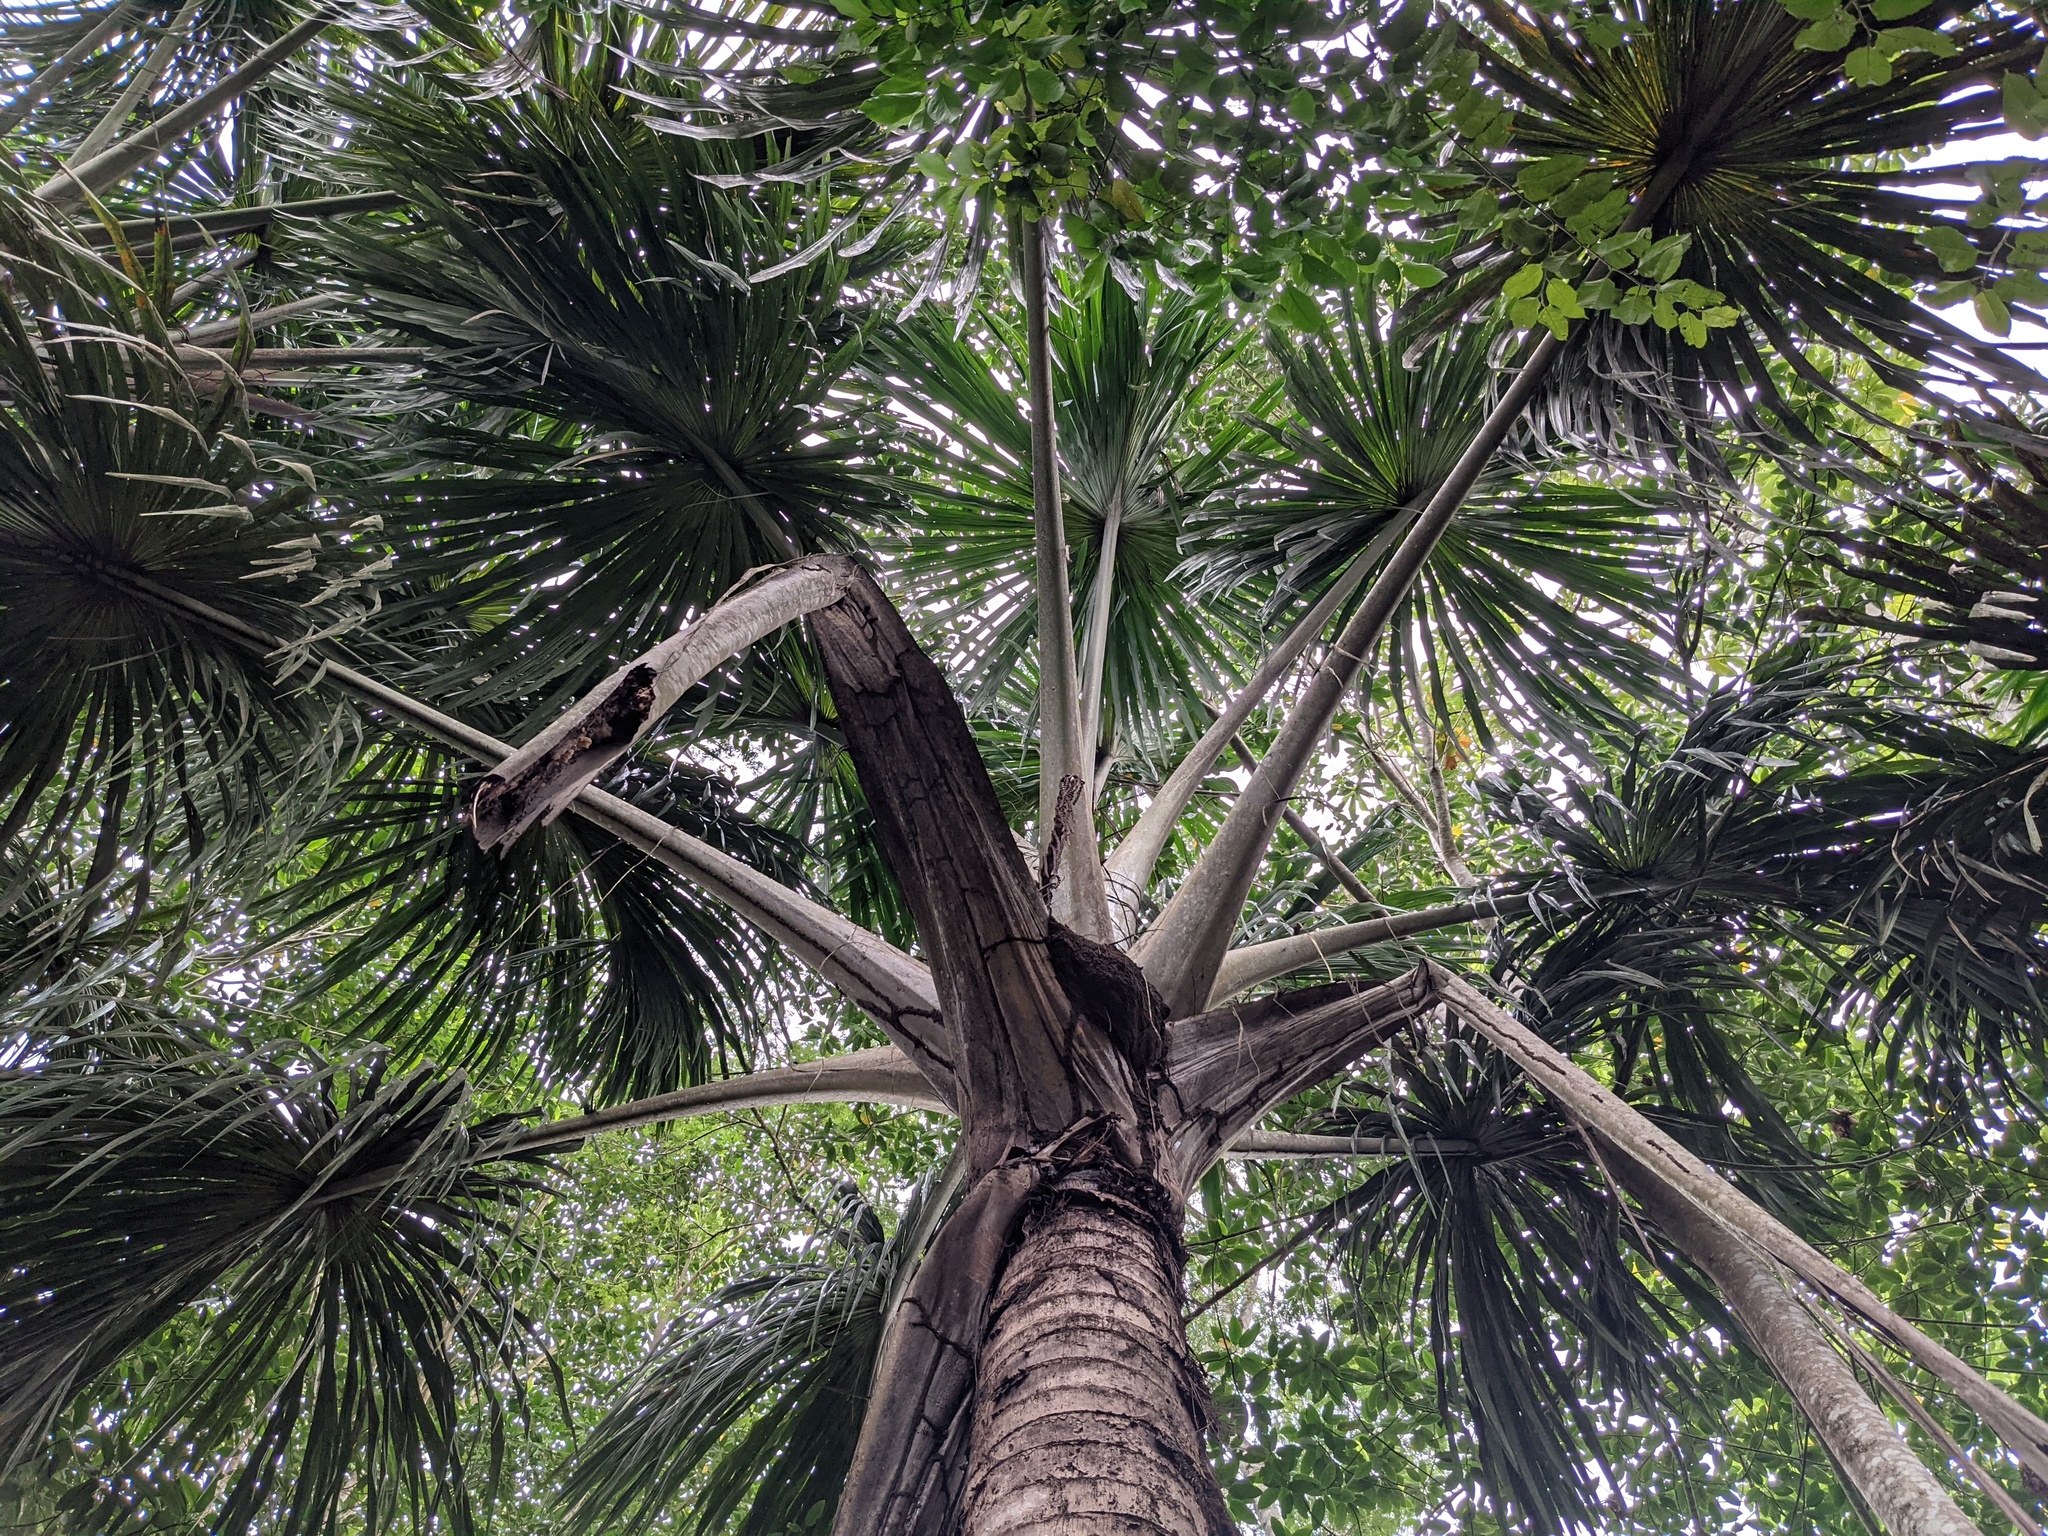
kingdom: Plantae
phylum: Tracheophyta
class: Liliopsida
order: Arecales
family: Arecaceae
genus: Mauritia
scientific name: Mauritia flexuosa
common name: Tree-of-life
